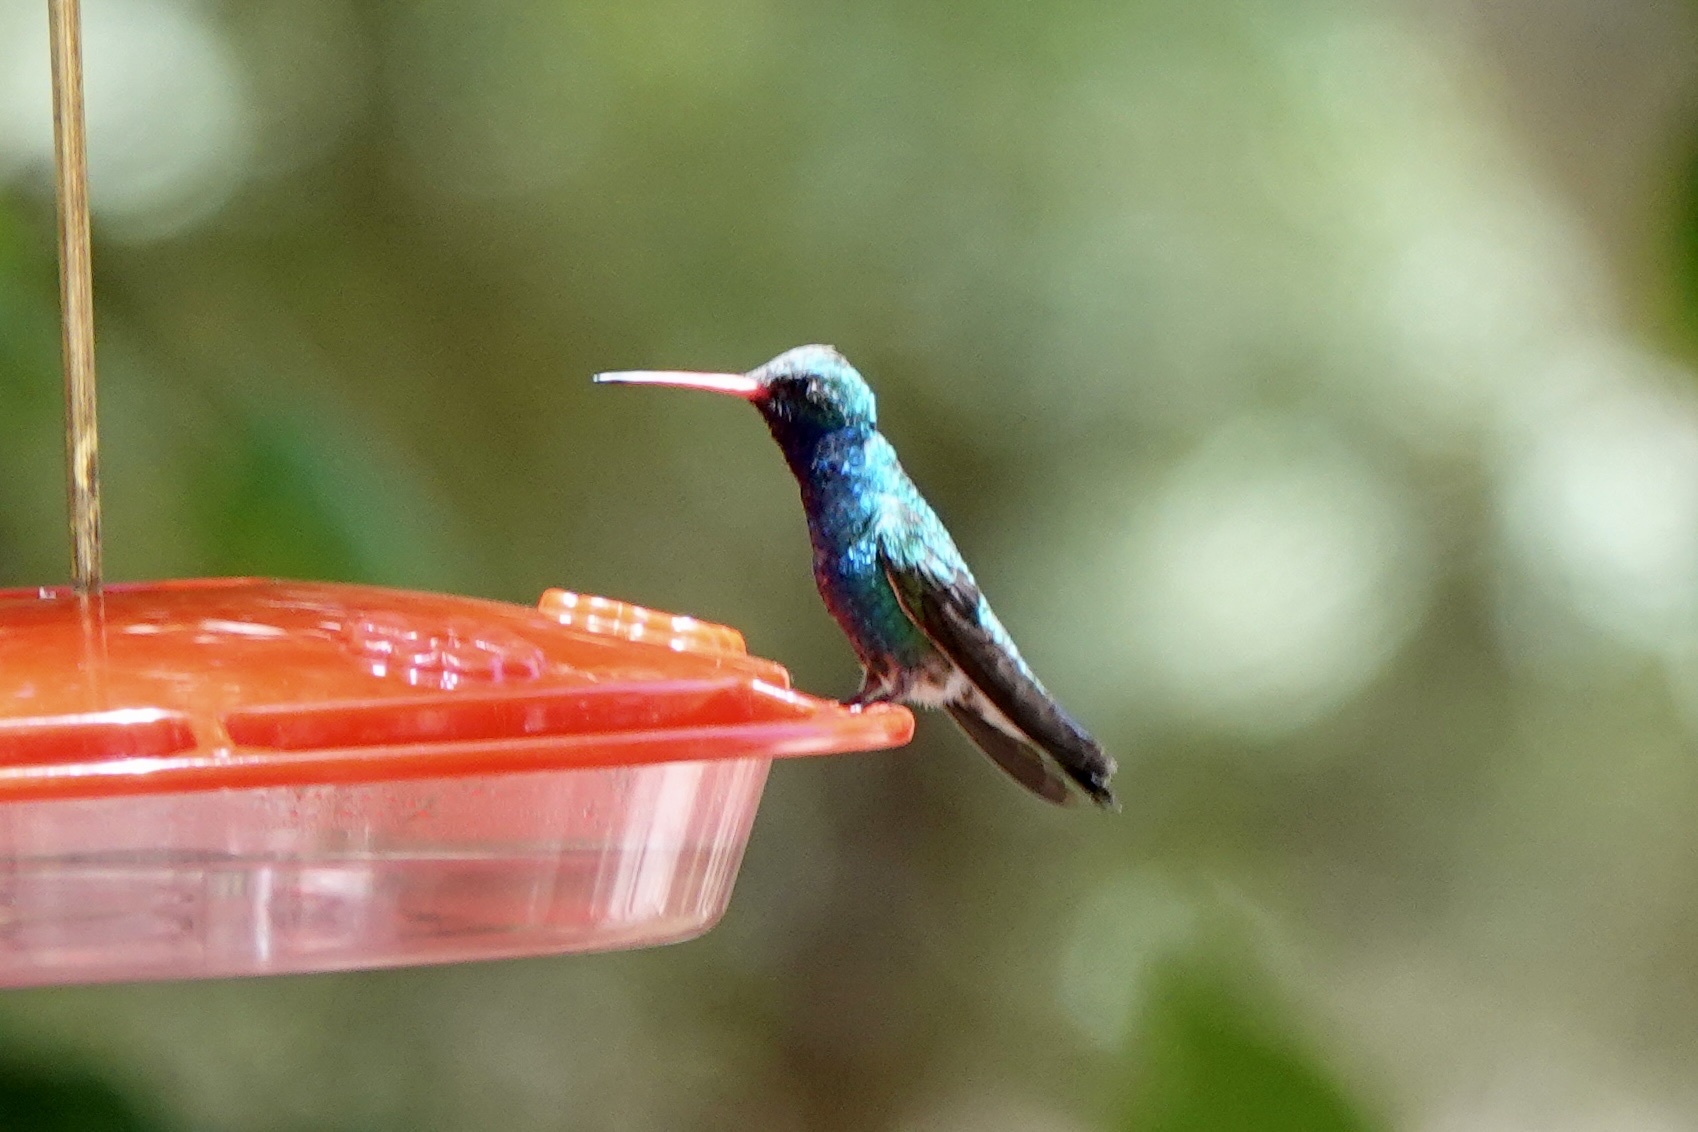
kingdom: Animalia
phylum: Chordata
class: Aves
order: Apodiformes
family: Trochilidae
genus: Cynanthus
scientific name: Cynanthus latirostris
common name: Broad-billed hummingbird
